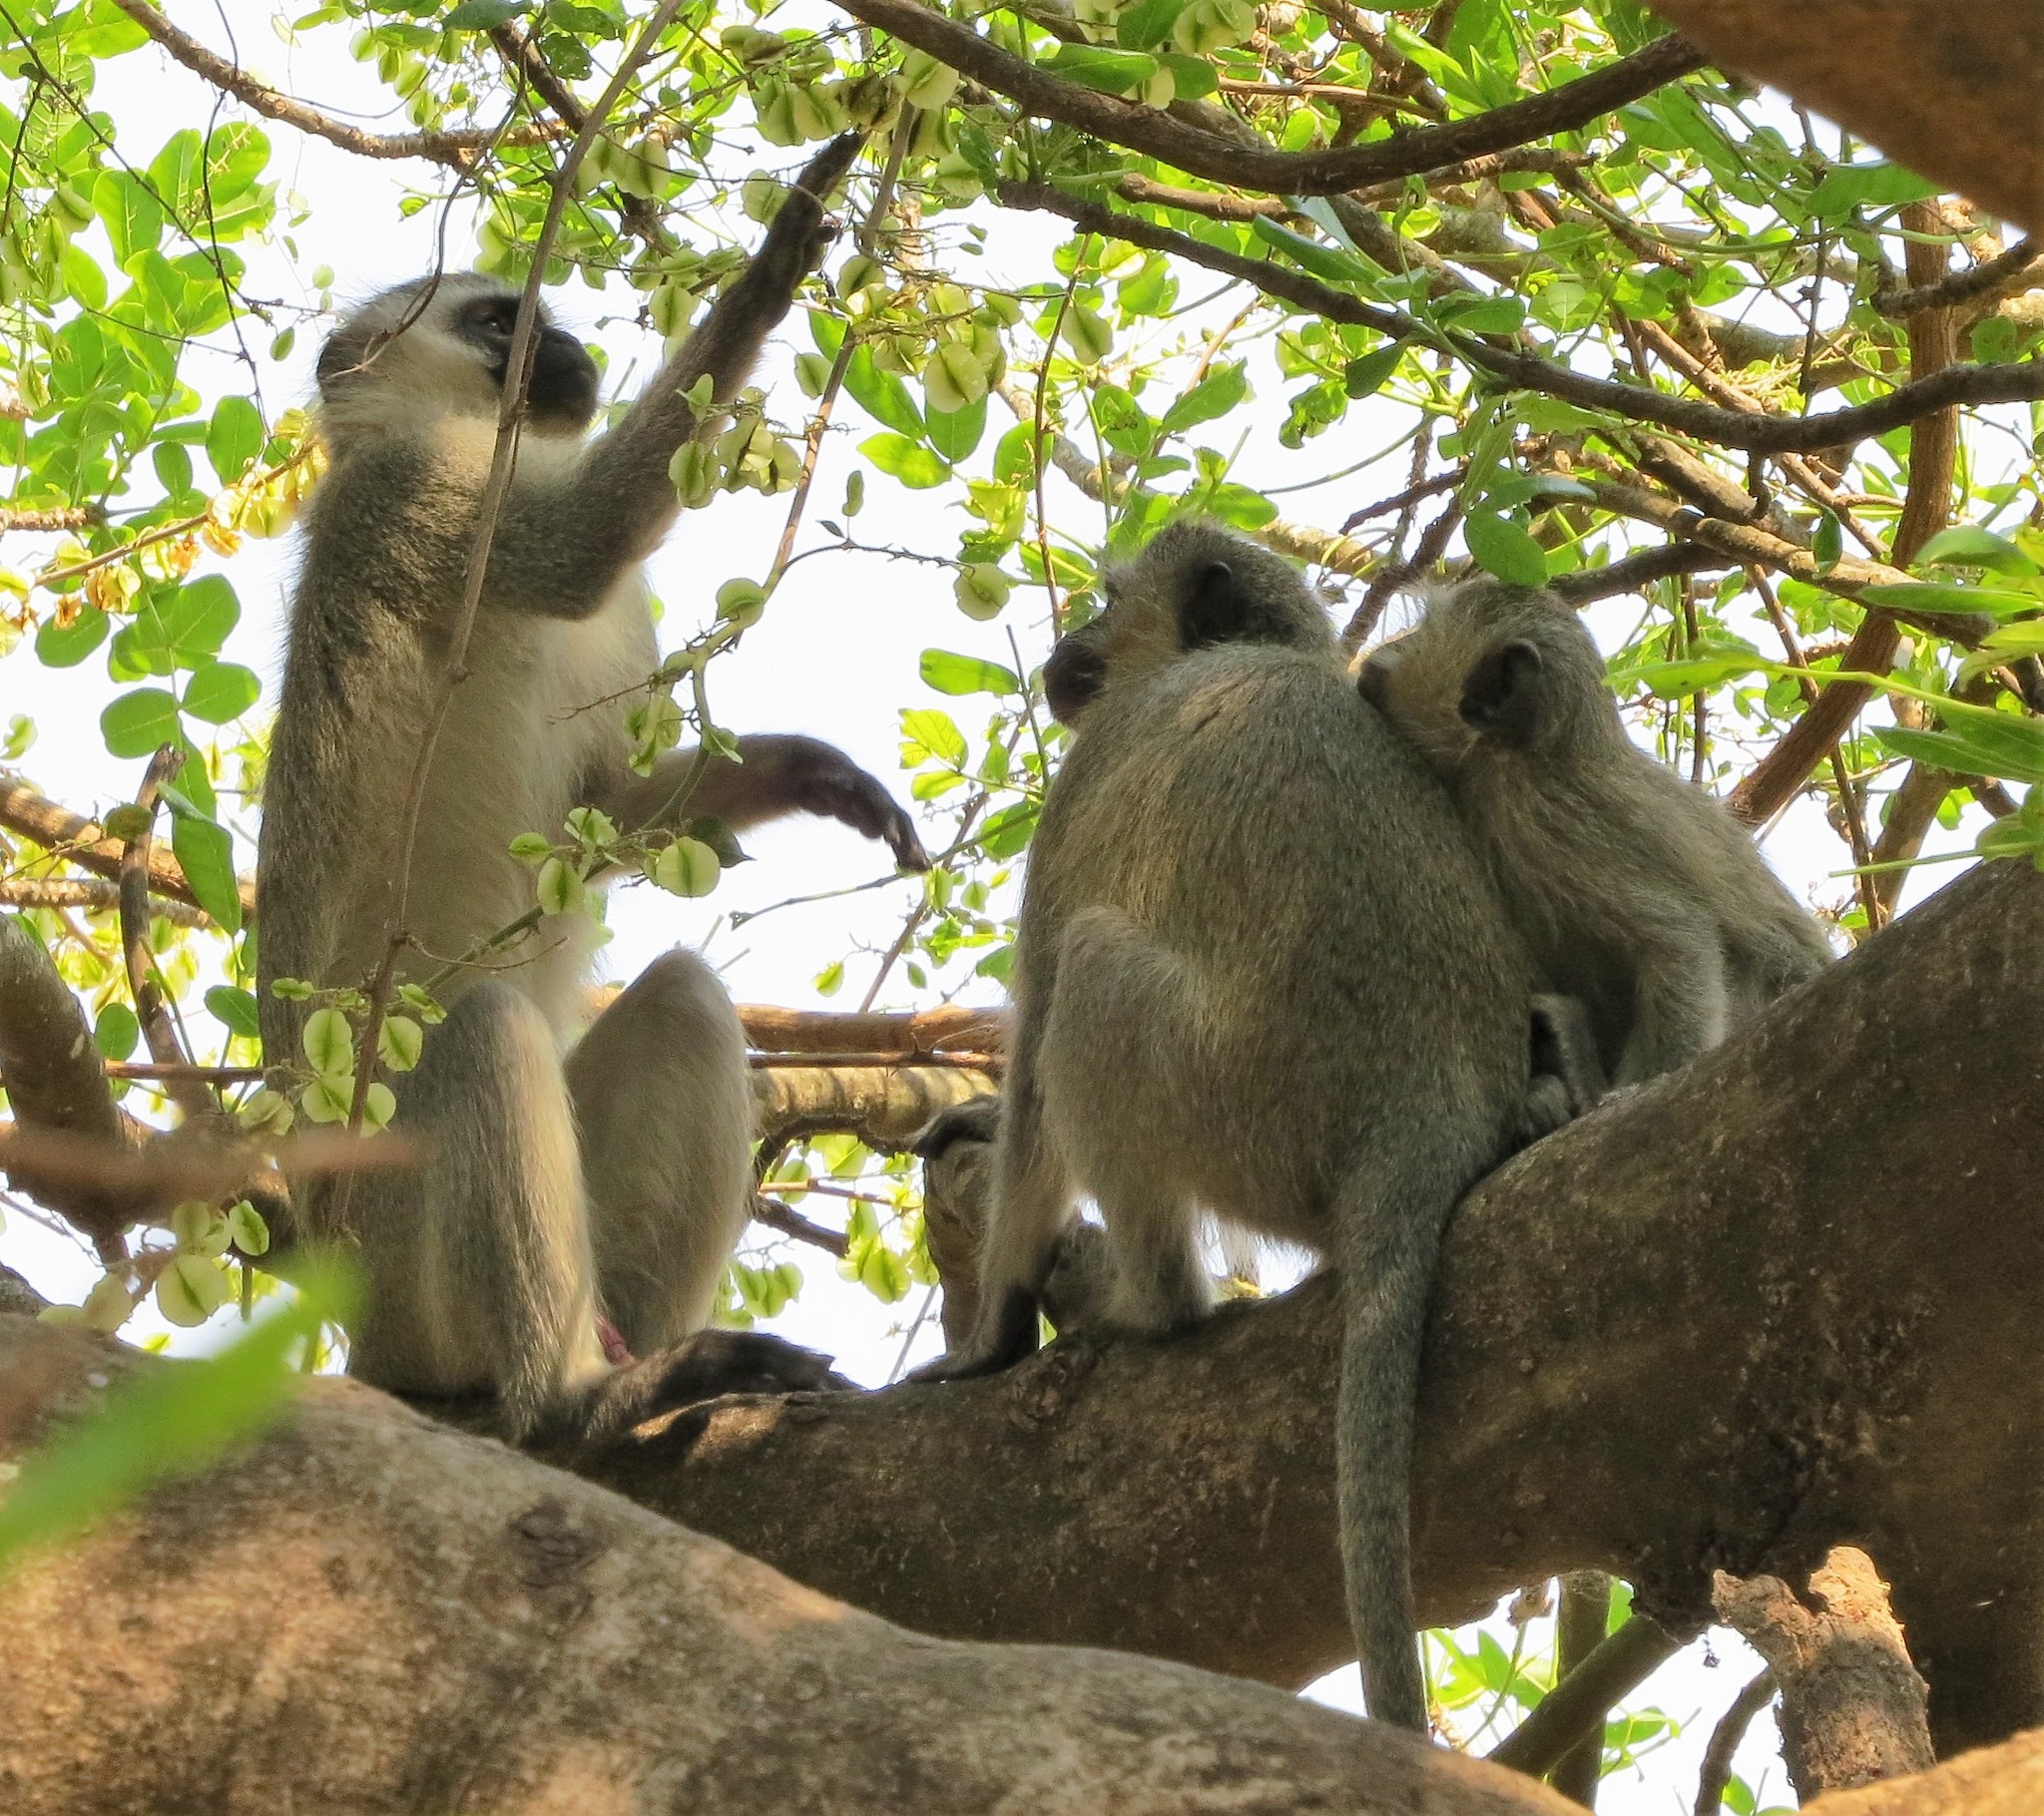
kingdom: Animalia
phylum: Chordata
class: Mammalia
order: Primates
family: Cercopithecidae
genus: Chlorocebus
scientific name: Chlorocebus pygerythrus
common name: Vervet monkey
